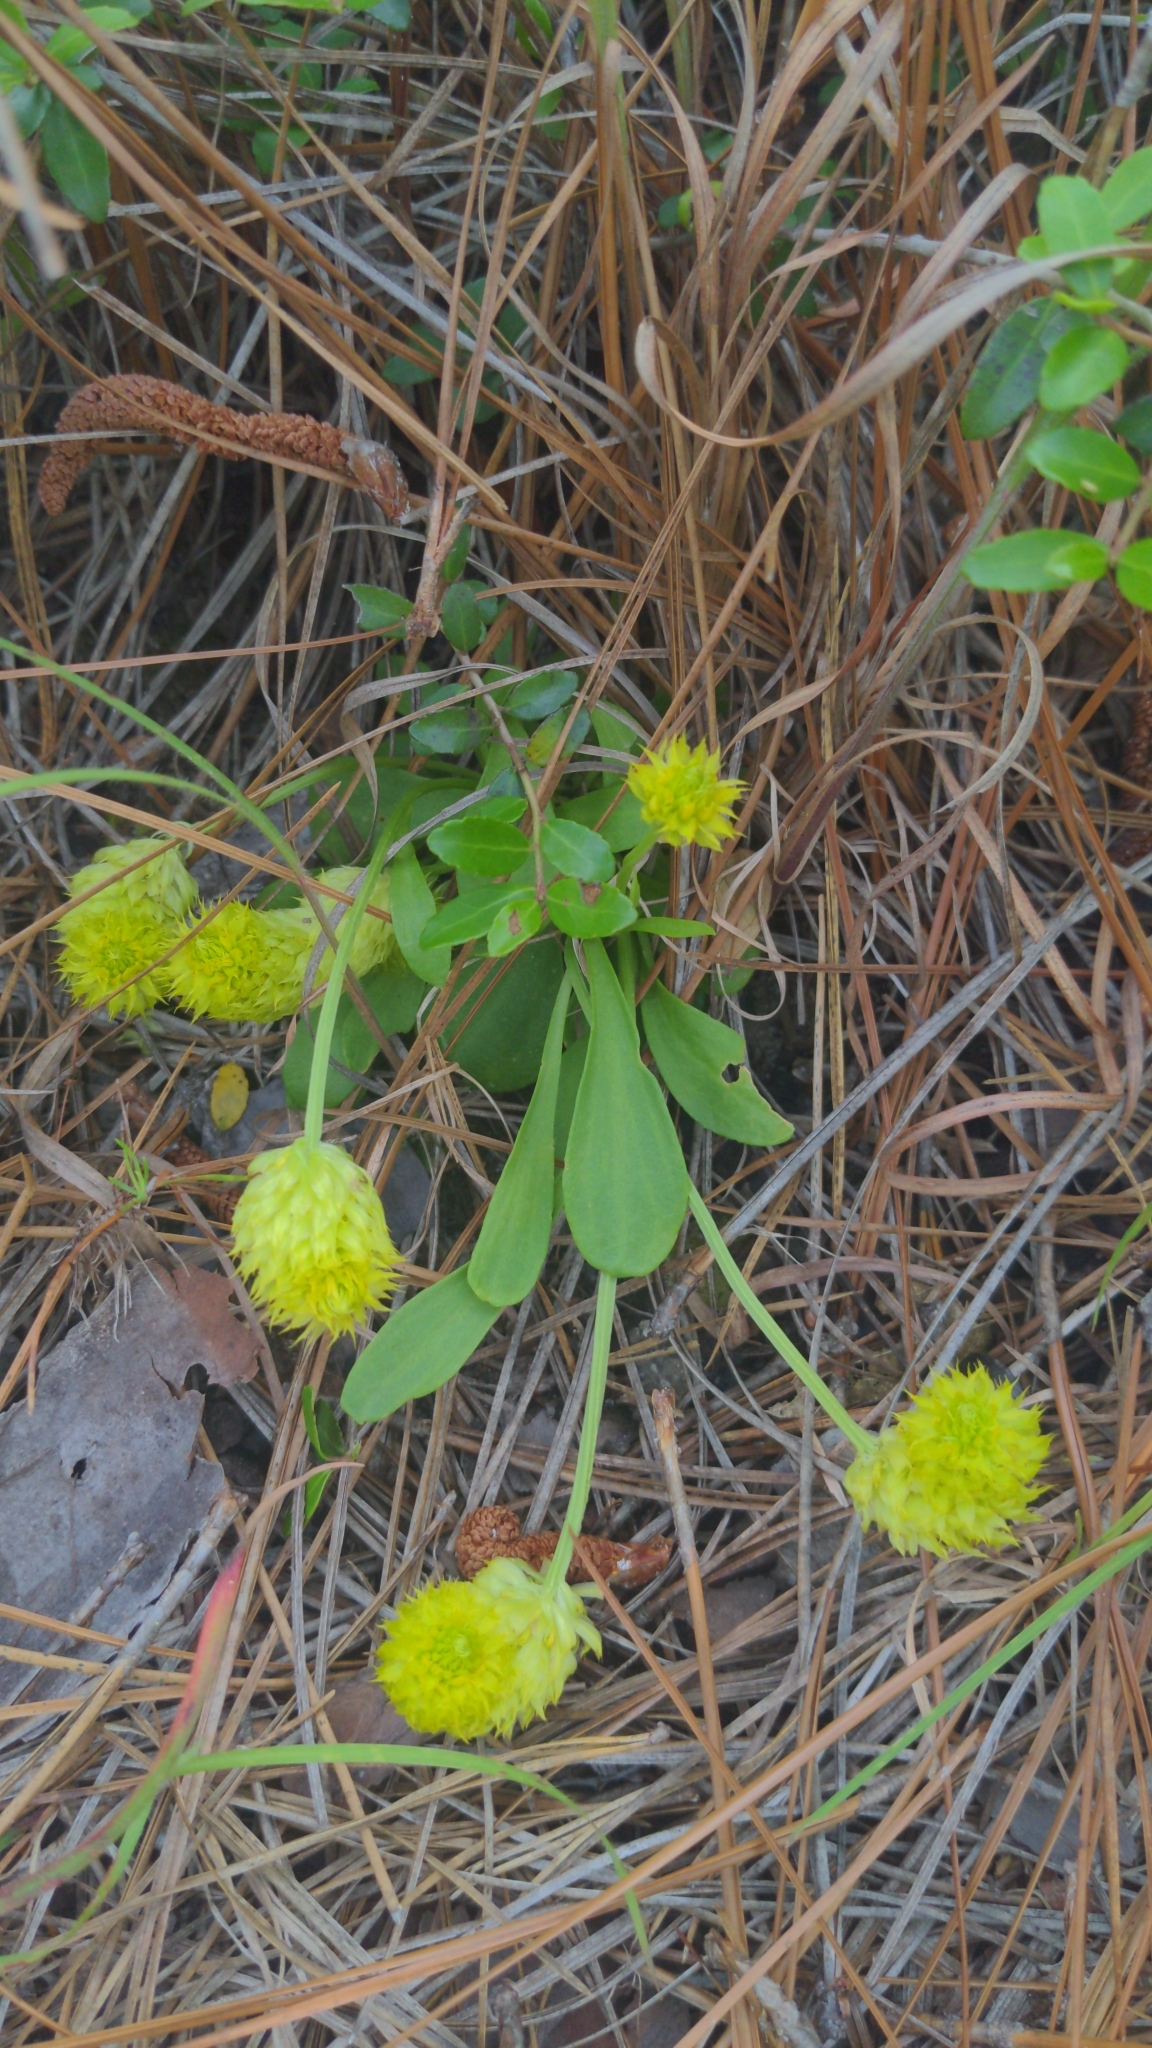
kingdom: Plantae
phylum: Tracheophyta
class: Magnoliopsida
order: Fabales
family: Polygalaceae
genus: Polygala
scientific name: Polygala nana
